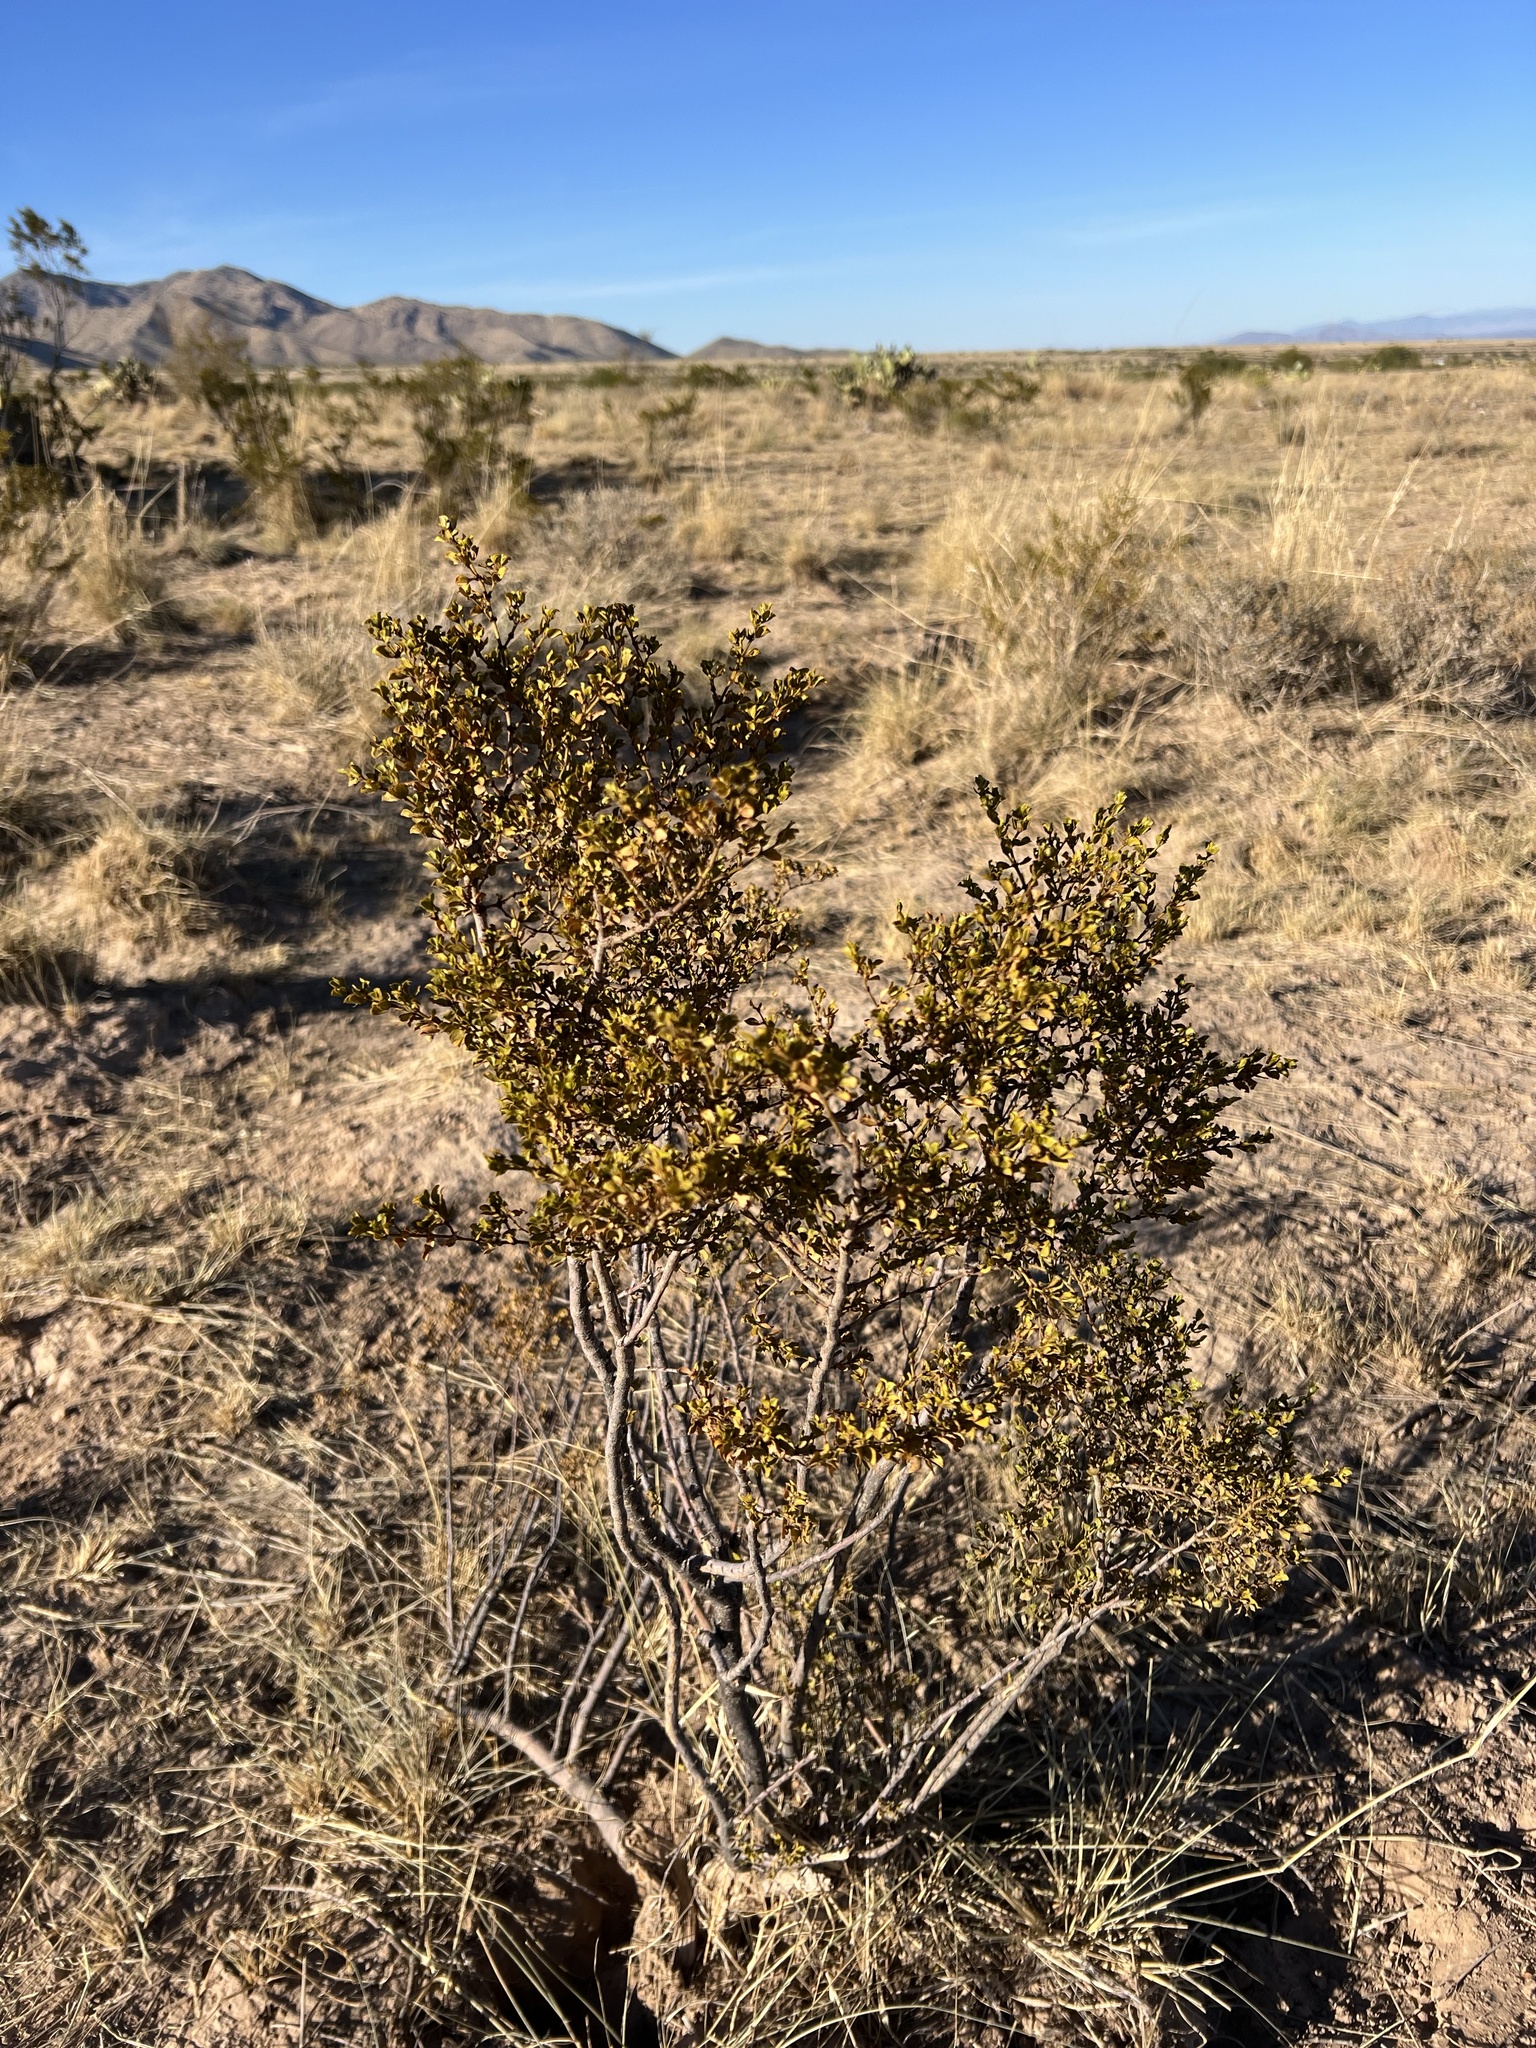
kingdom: Plantae
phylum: Tracheophyta
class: Magnoliopsida
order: Zygophyllales
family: Zygophyllaceae
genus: Larrea
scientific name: Larrea tridentata
